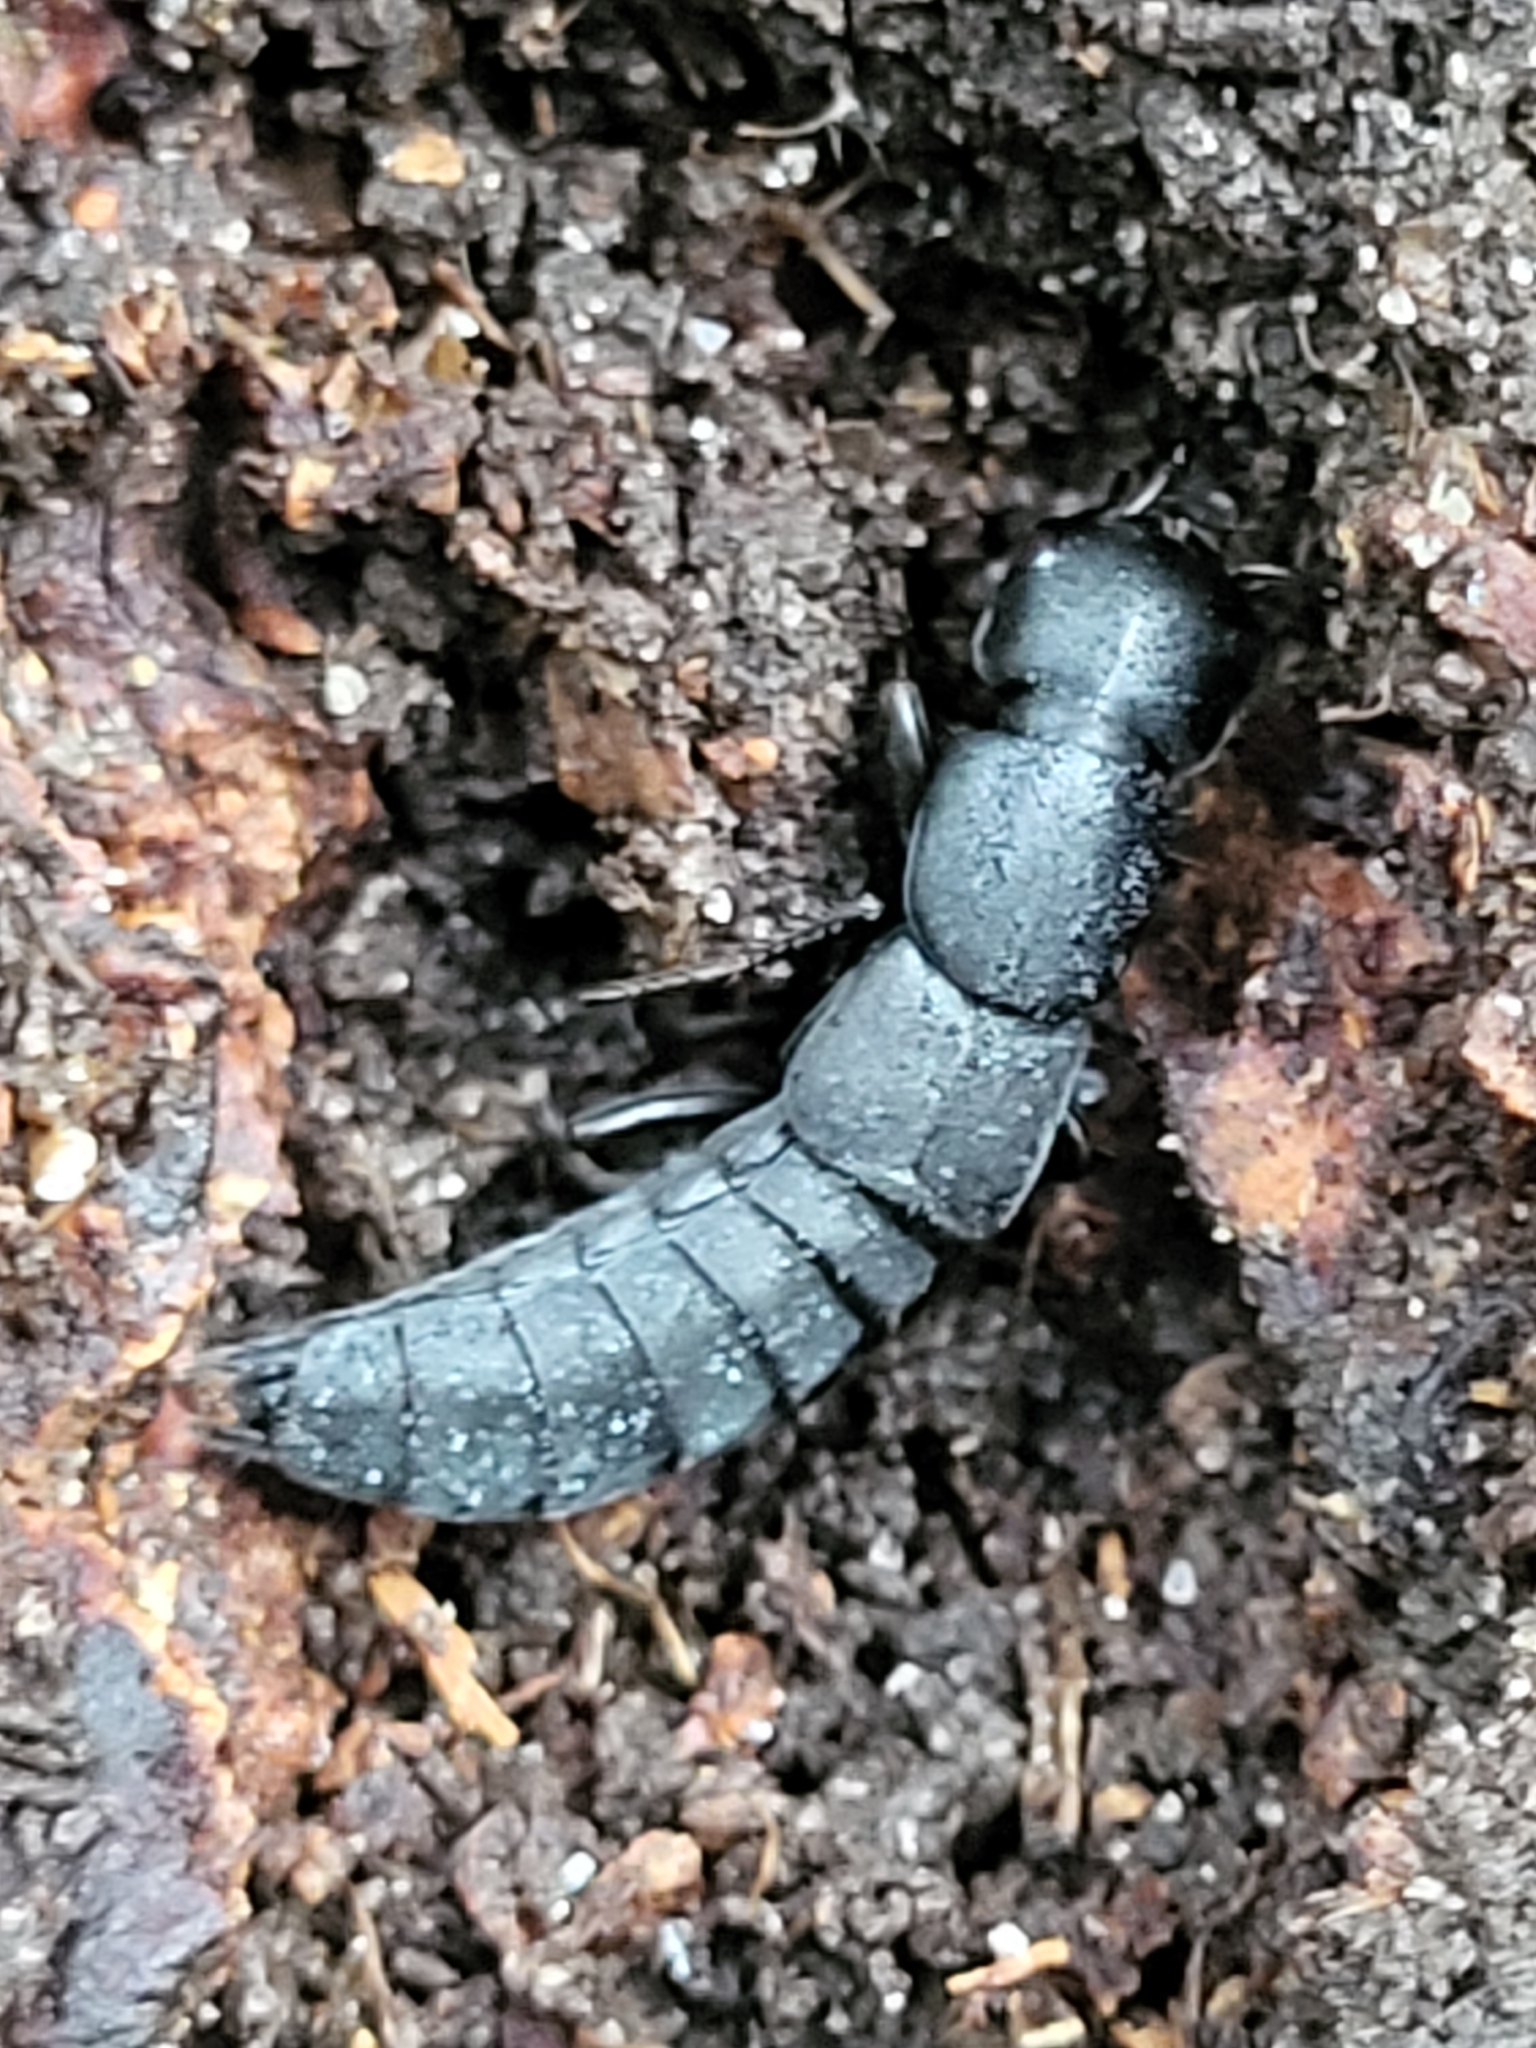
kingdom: Animalia
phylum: Arthropoda
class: Insecta
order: Coleoptera
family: Staphylinidae
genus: Ocypus
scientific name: Ocypus nitens
